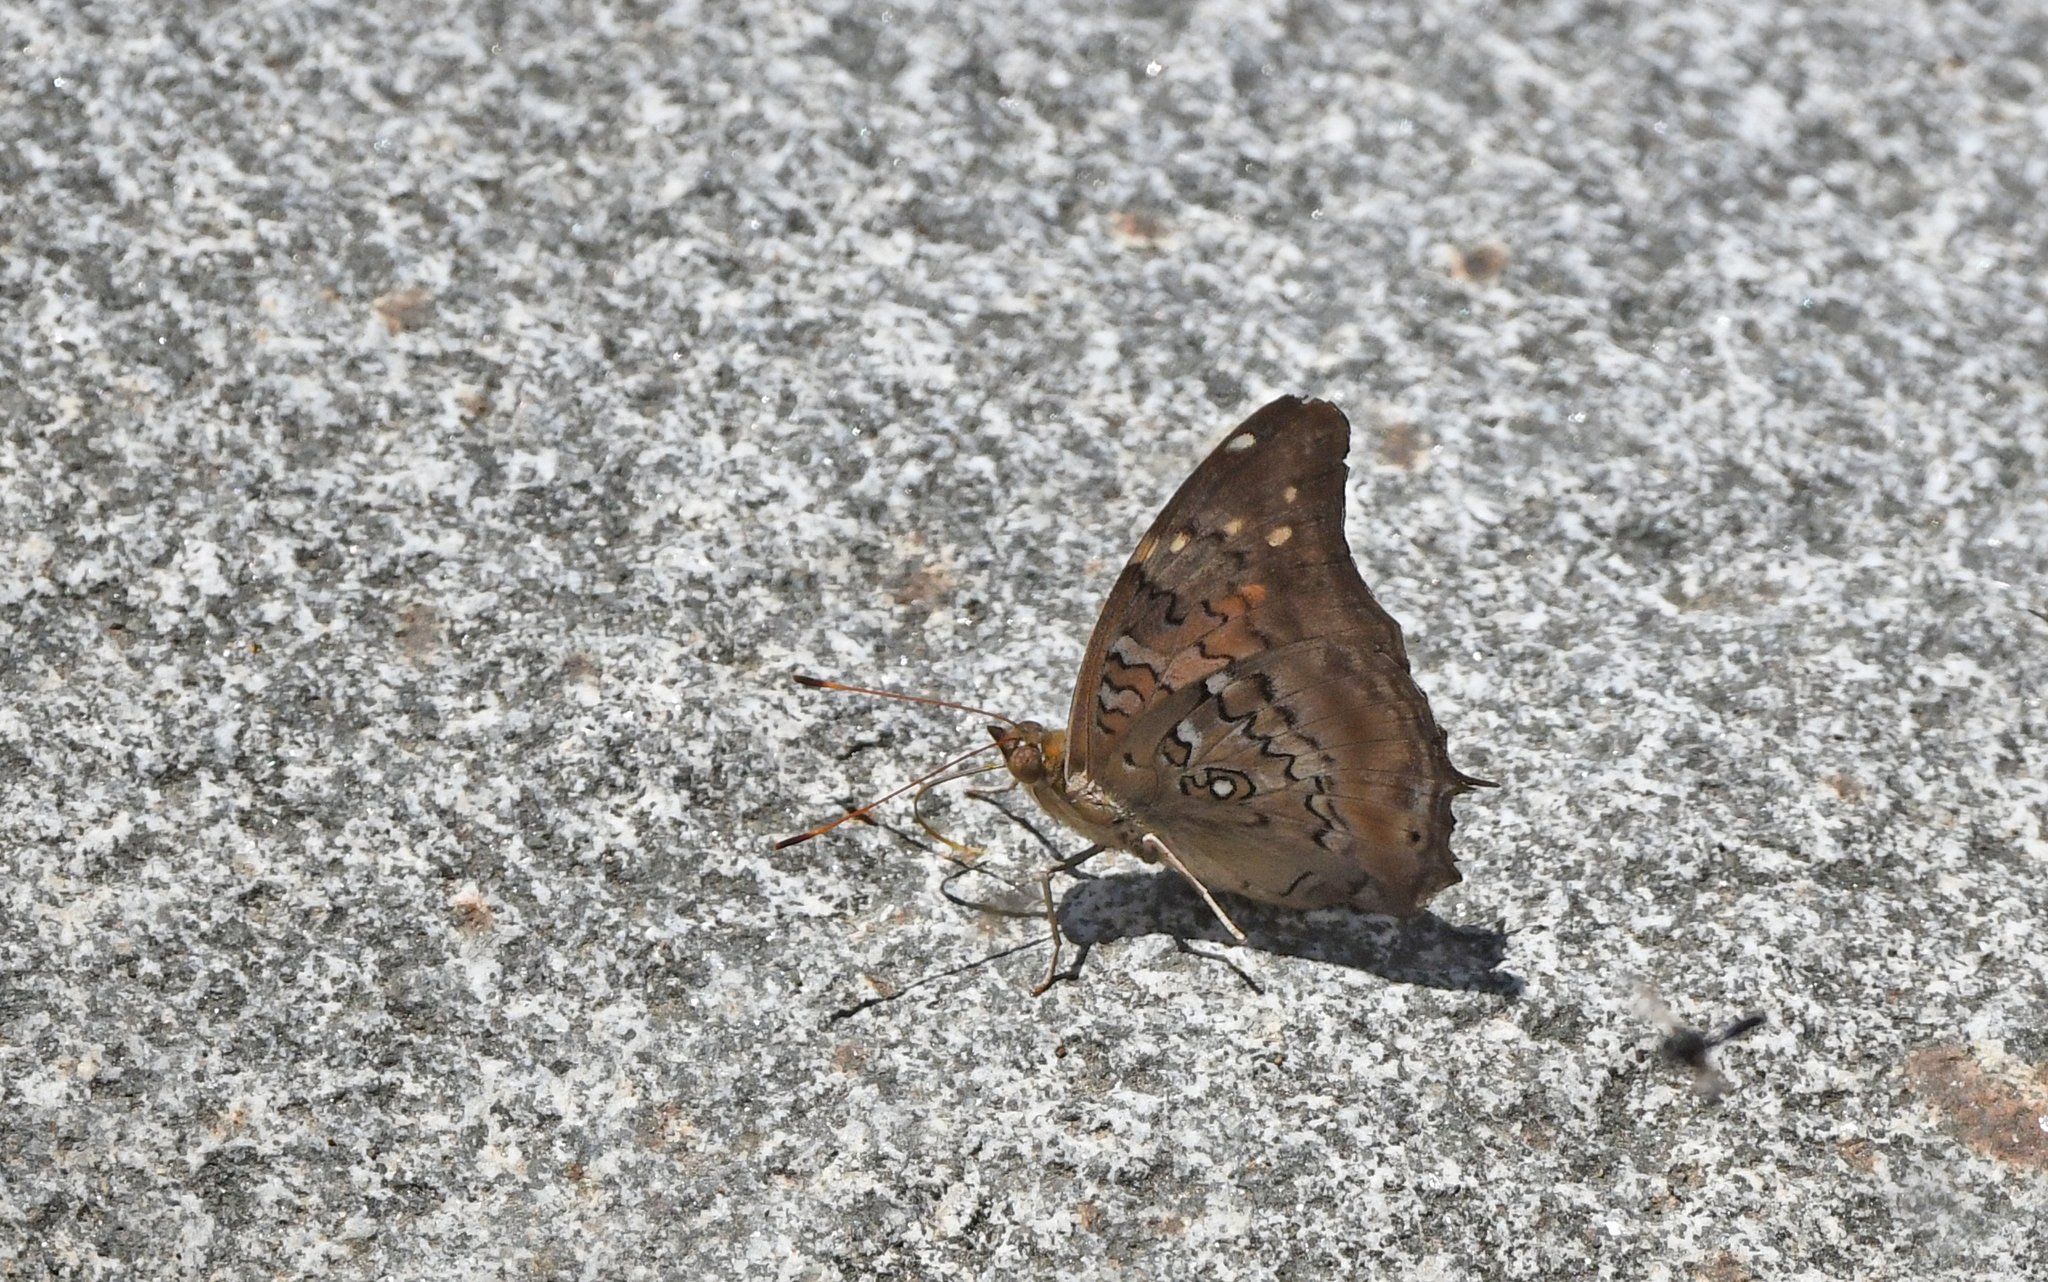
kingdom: Animalia
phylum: Arthropoda
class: Insecta
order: Lepidoptera
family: Nymphalidae
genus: Coea
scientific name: Coea acheronta
